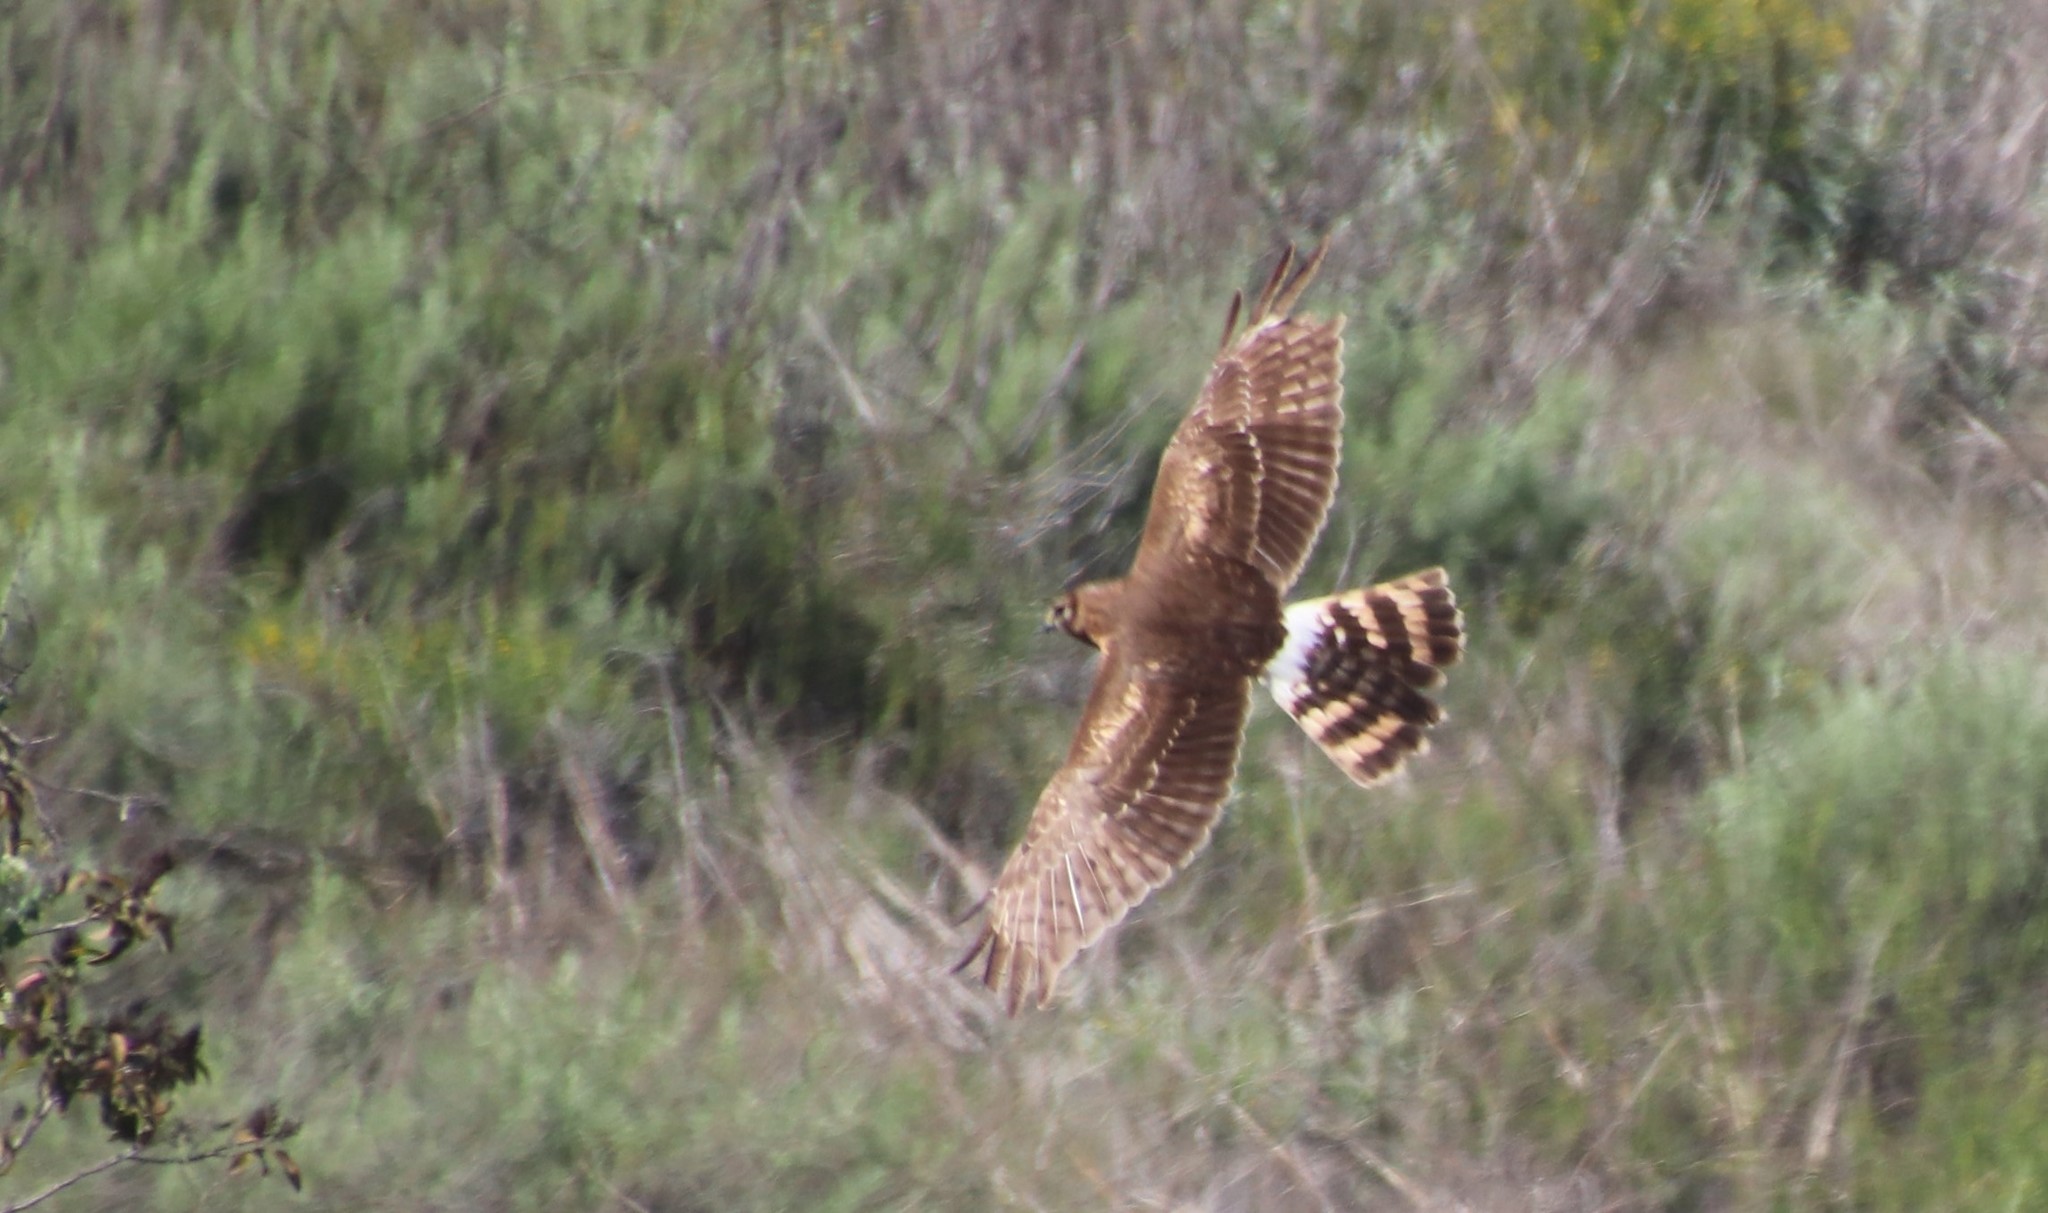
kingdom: Animalia
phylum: Chordata
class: Aves
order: Accipitriformes
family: Accipitridae
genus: Circus
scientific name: Circus cyaneus
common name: Hen harrier
